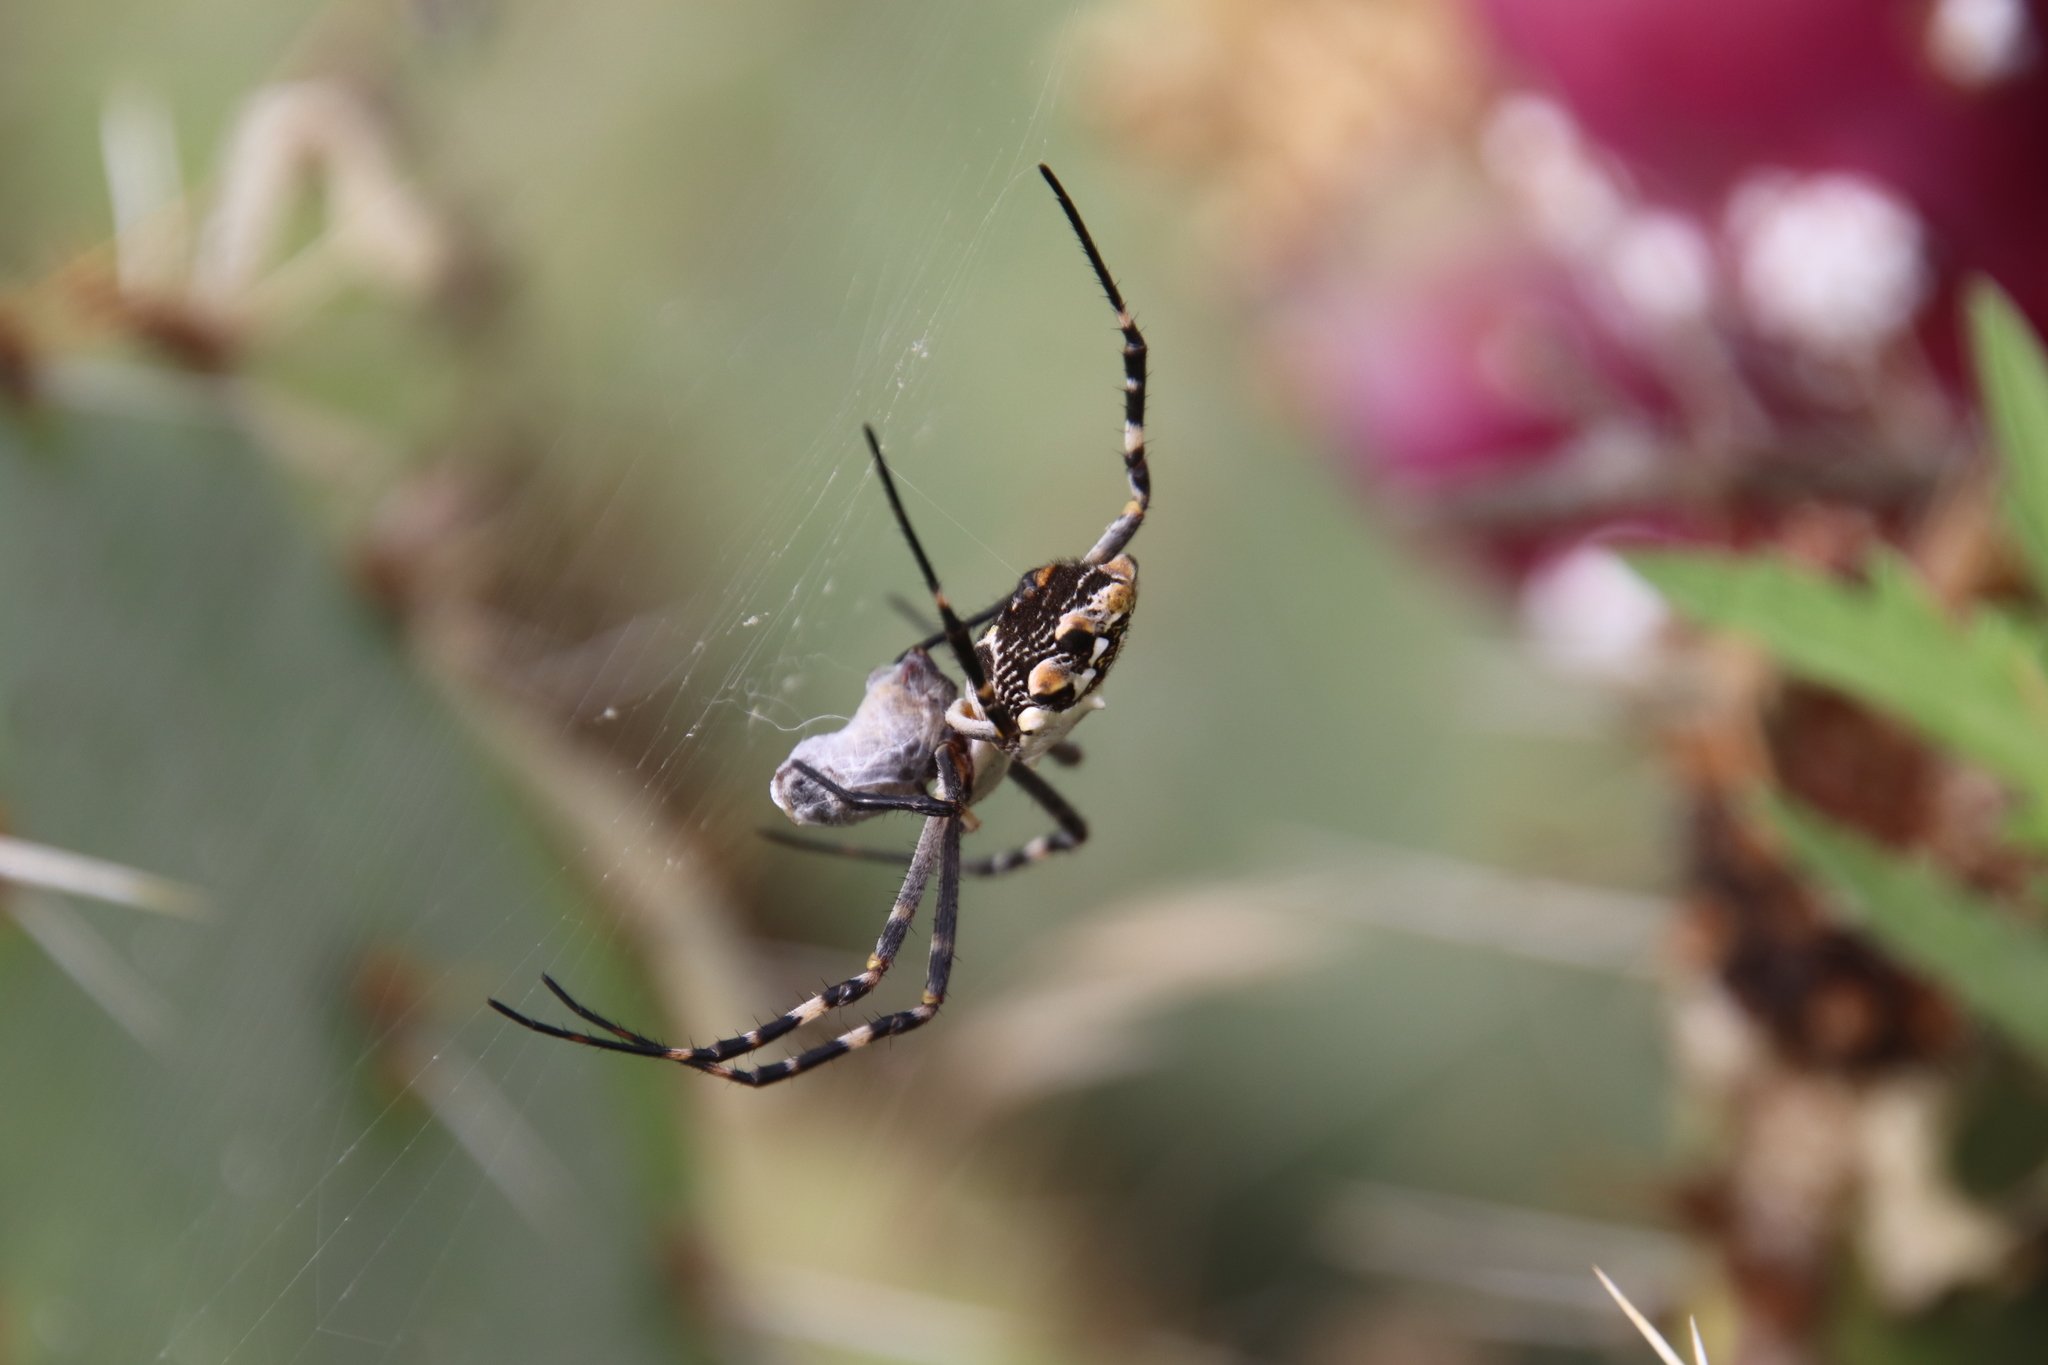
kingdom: Animalia
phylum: Arthropoda
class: Arachnida
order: Araneae
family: Araneidae
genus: Argiope
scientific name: Argiope argentata
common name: Orb weavers
